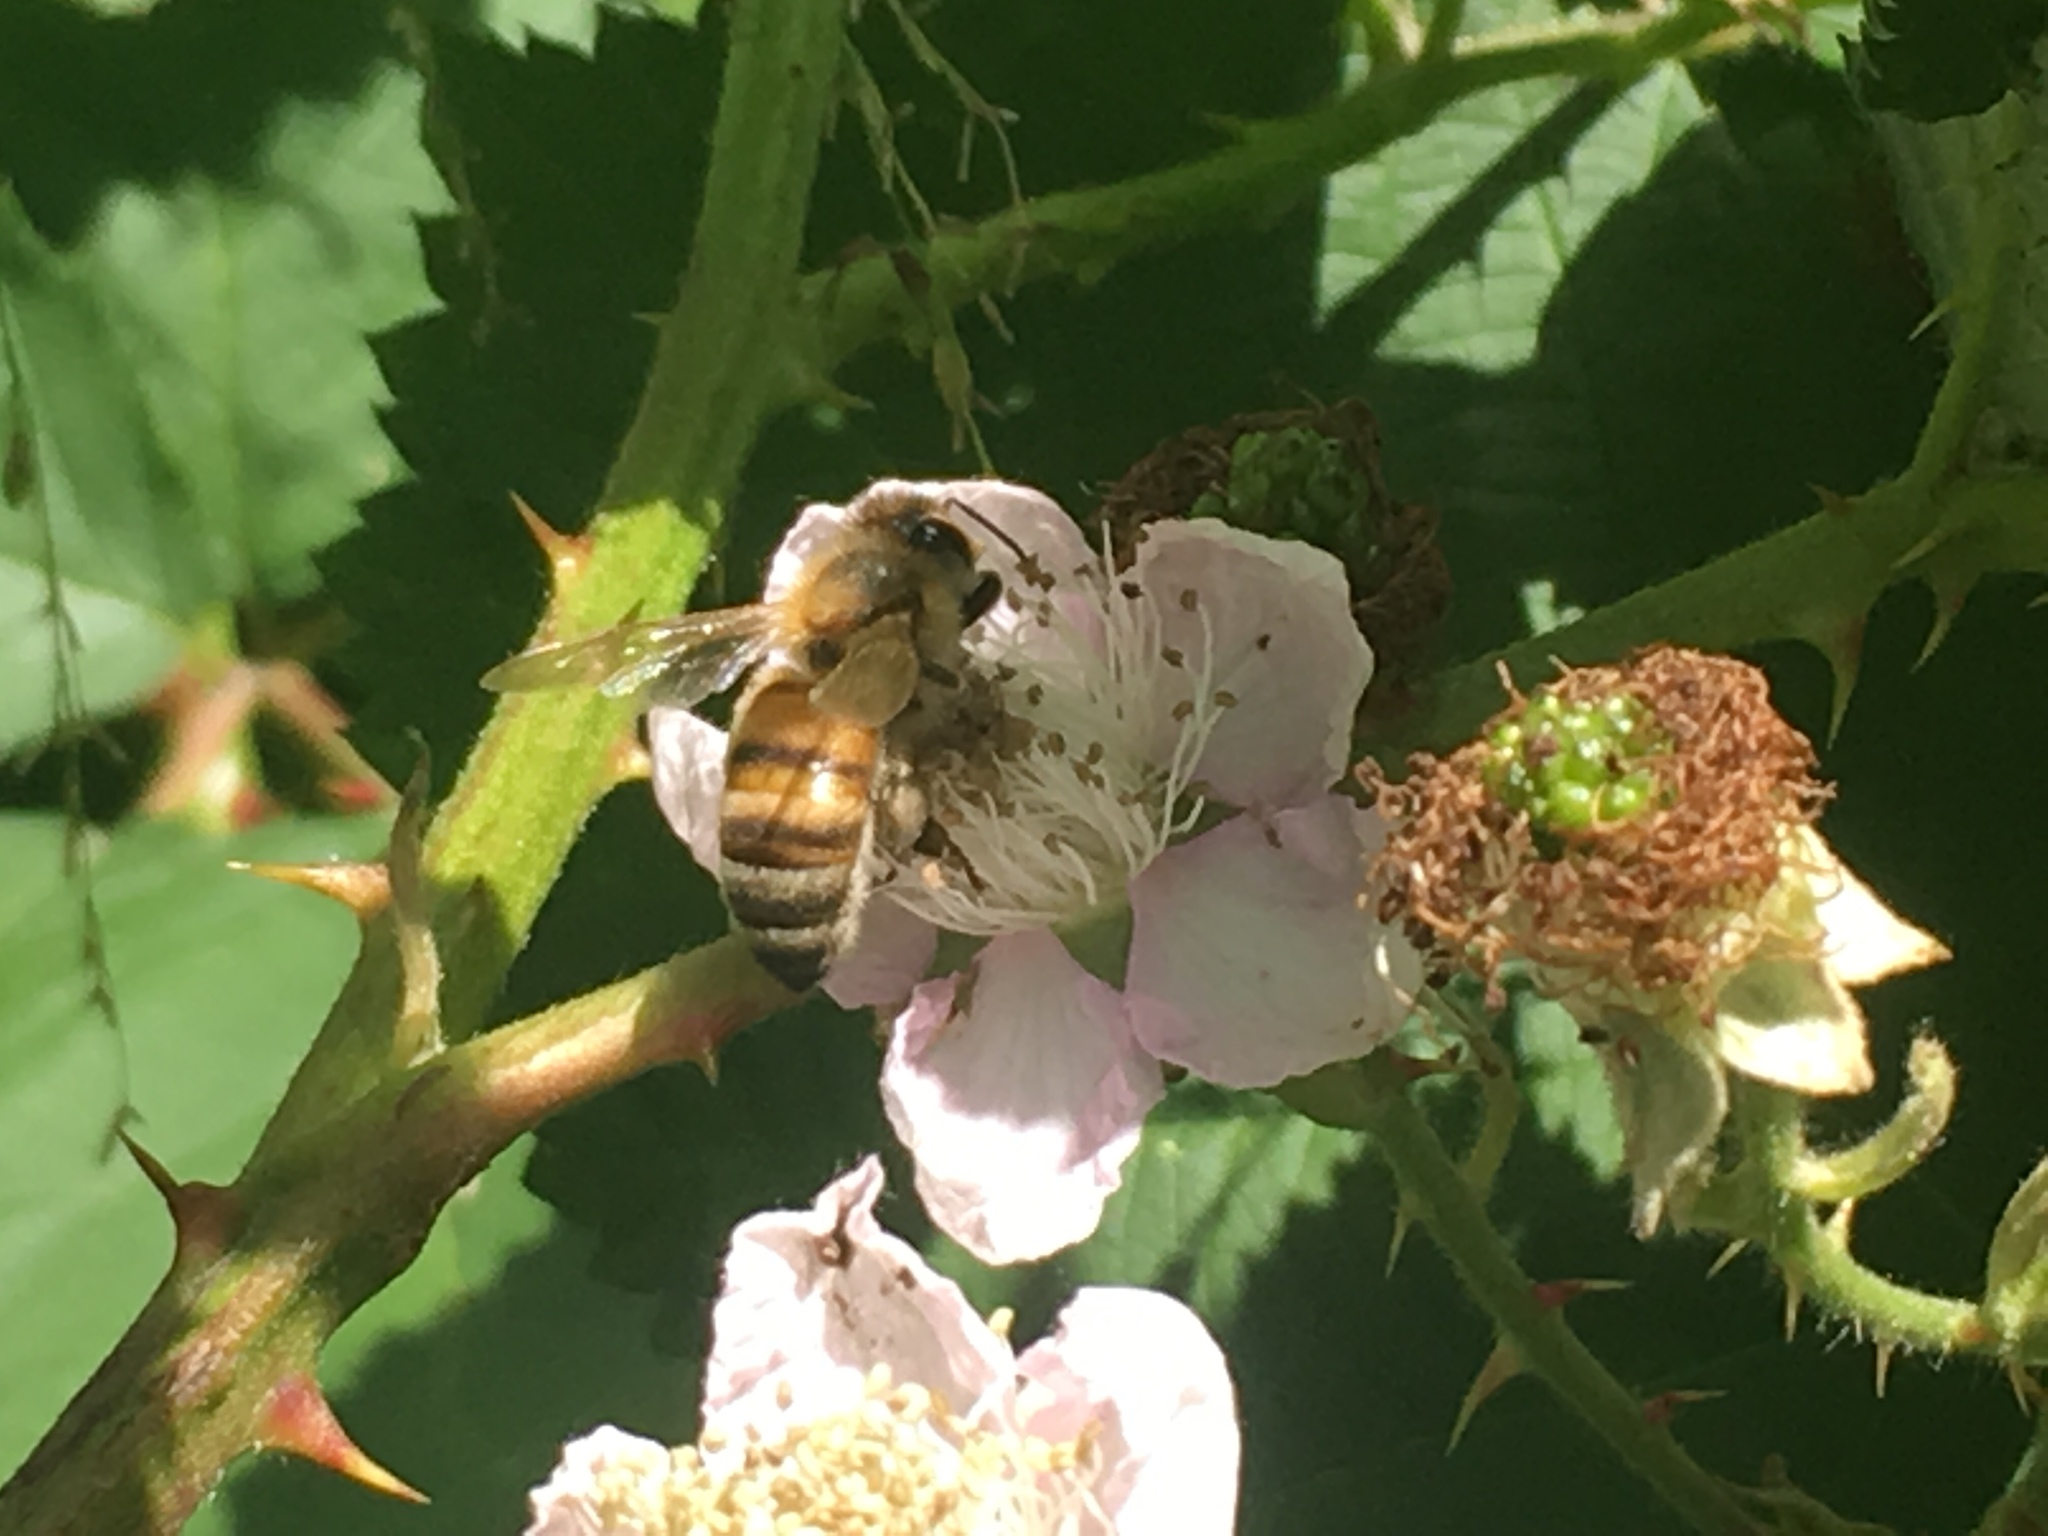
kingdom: Animalia
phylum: Arthropoda
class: Insecta
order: Hymenoptera
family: Apidae
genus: Apis
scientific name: Apis mellifera
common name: Honey bee
